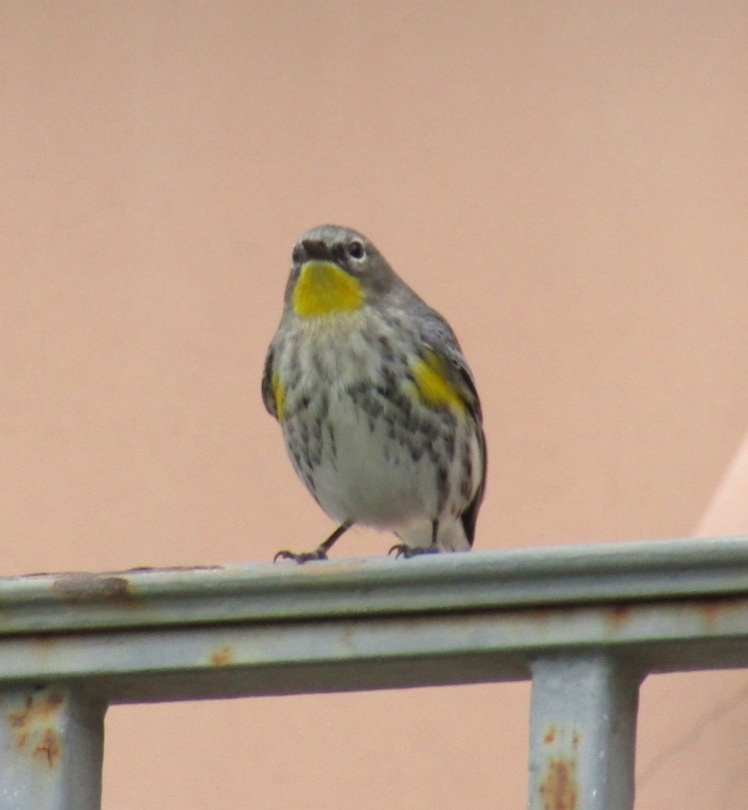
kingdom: Animalia
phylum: Chordata
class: Aves
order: Passeriformes
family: Parulidae
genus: Setophaga
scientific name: Setophaga coronata
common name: Myrtle warbler
